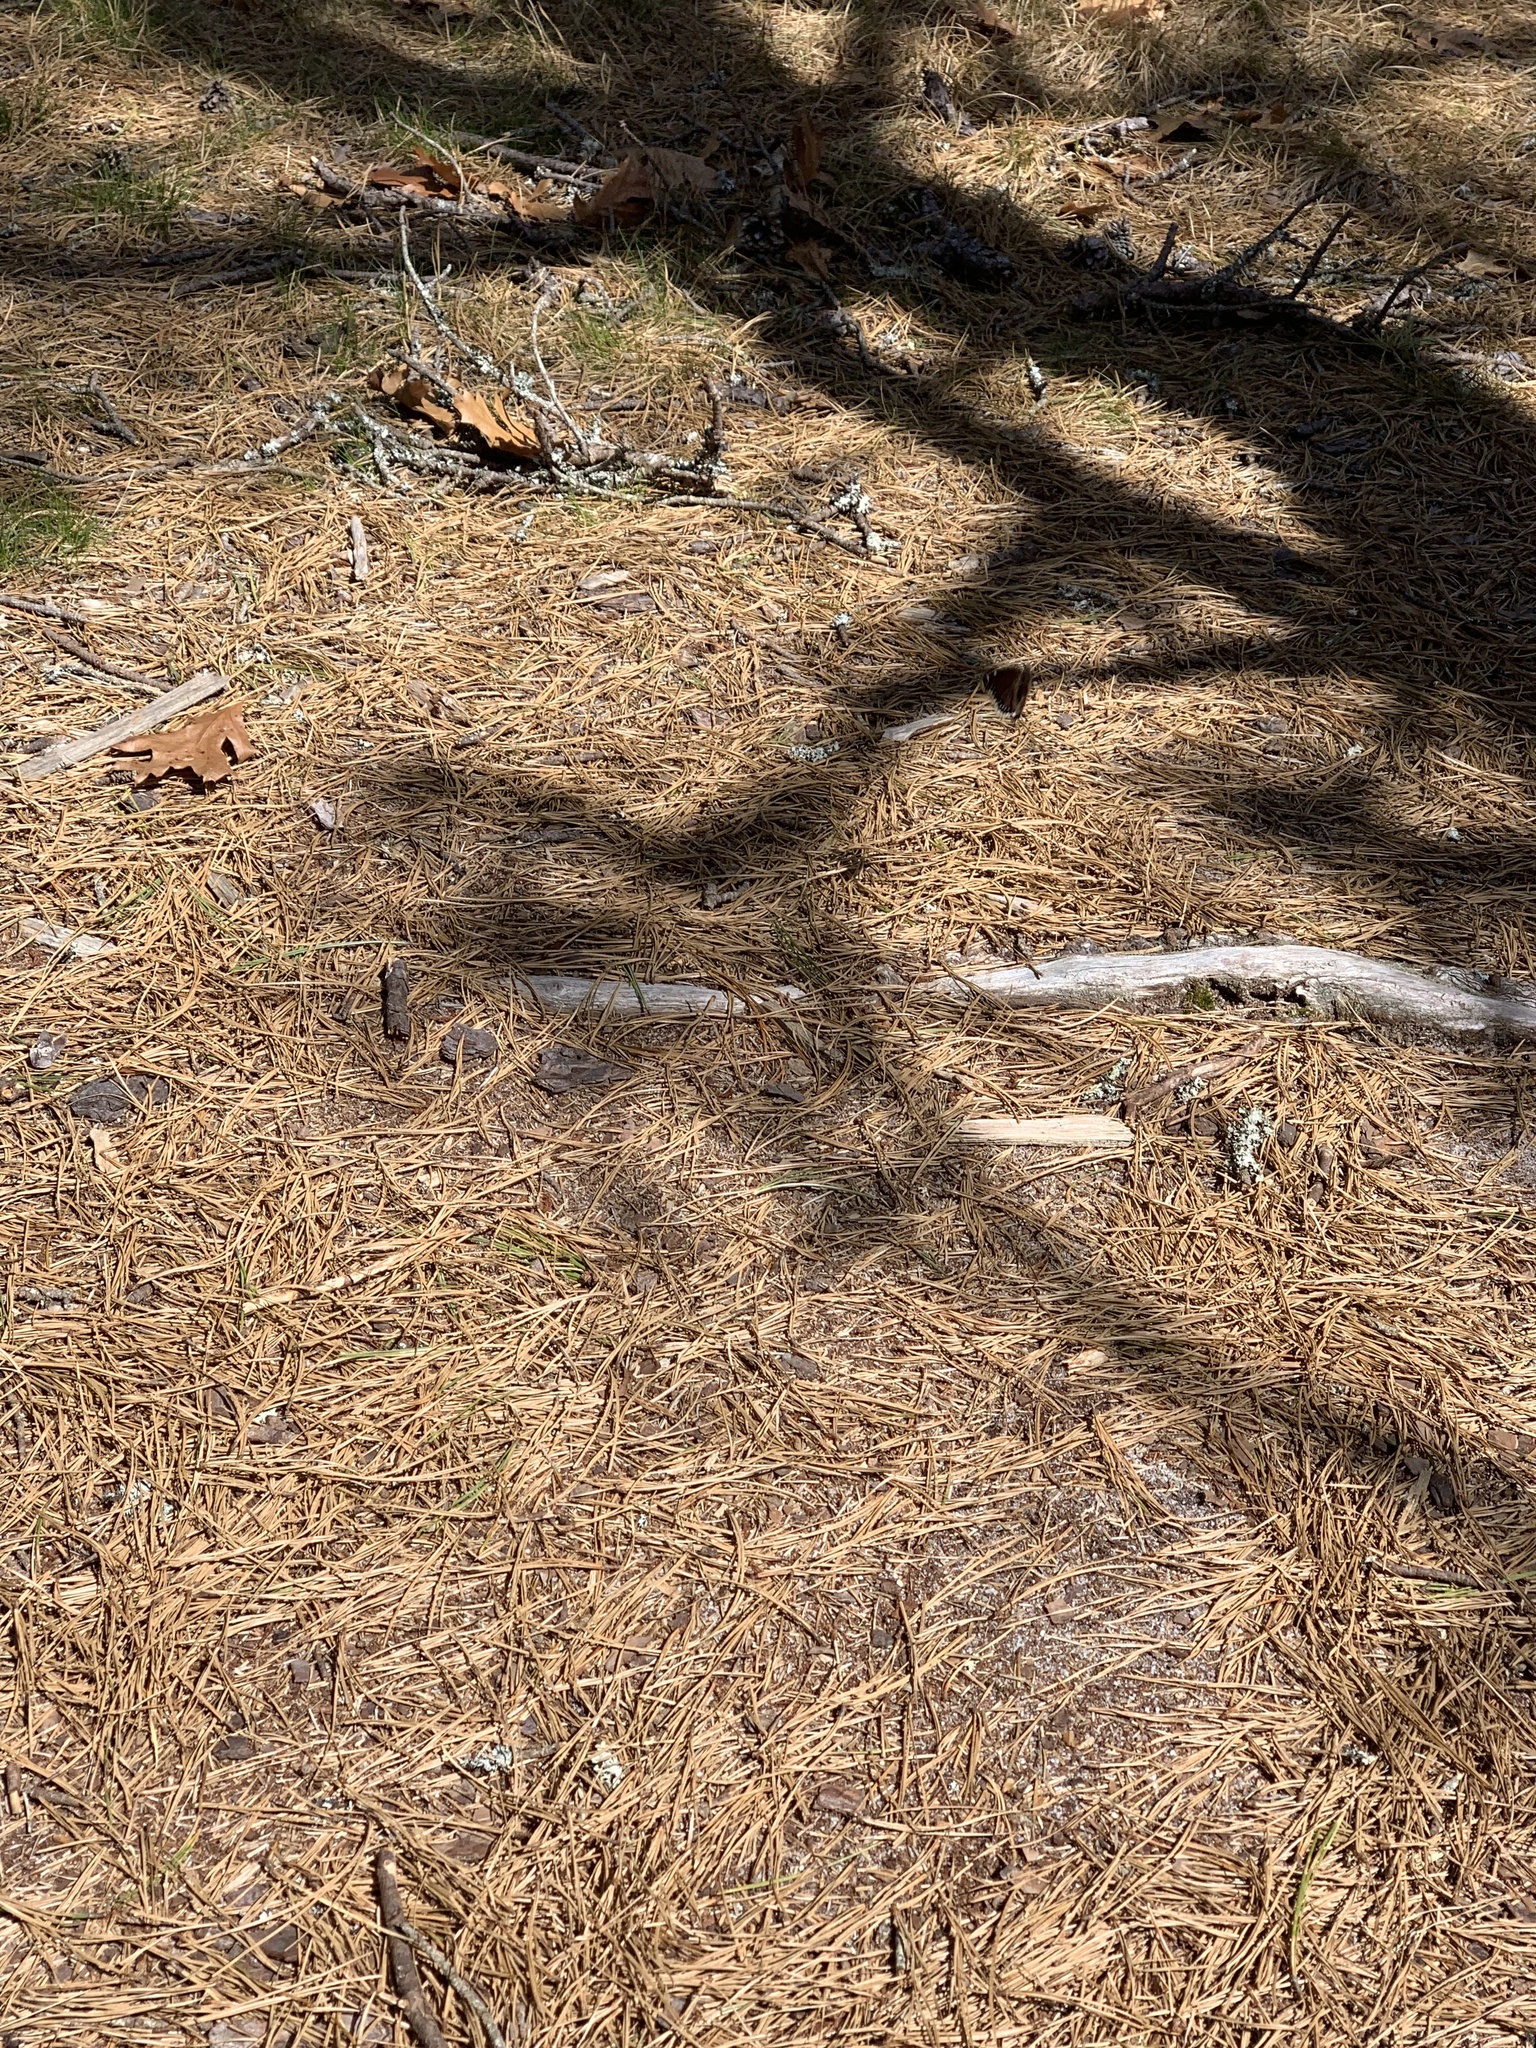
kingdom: Animalia
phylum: Arthropoda
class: Insecta
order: Lepidoptera
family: Nymphalidae
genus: Nymphalis
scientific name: Nymphalis antiopa
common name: Camberwell beauty
